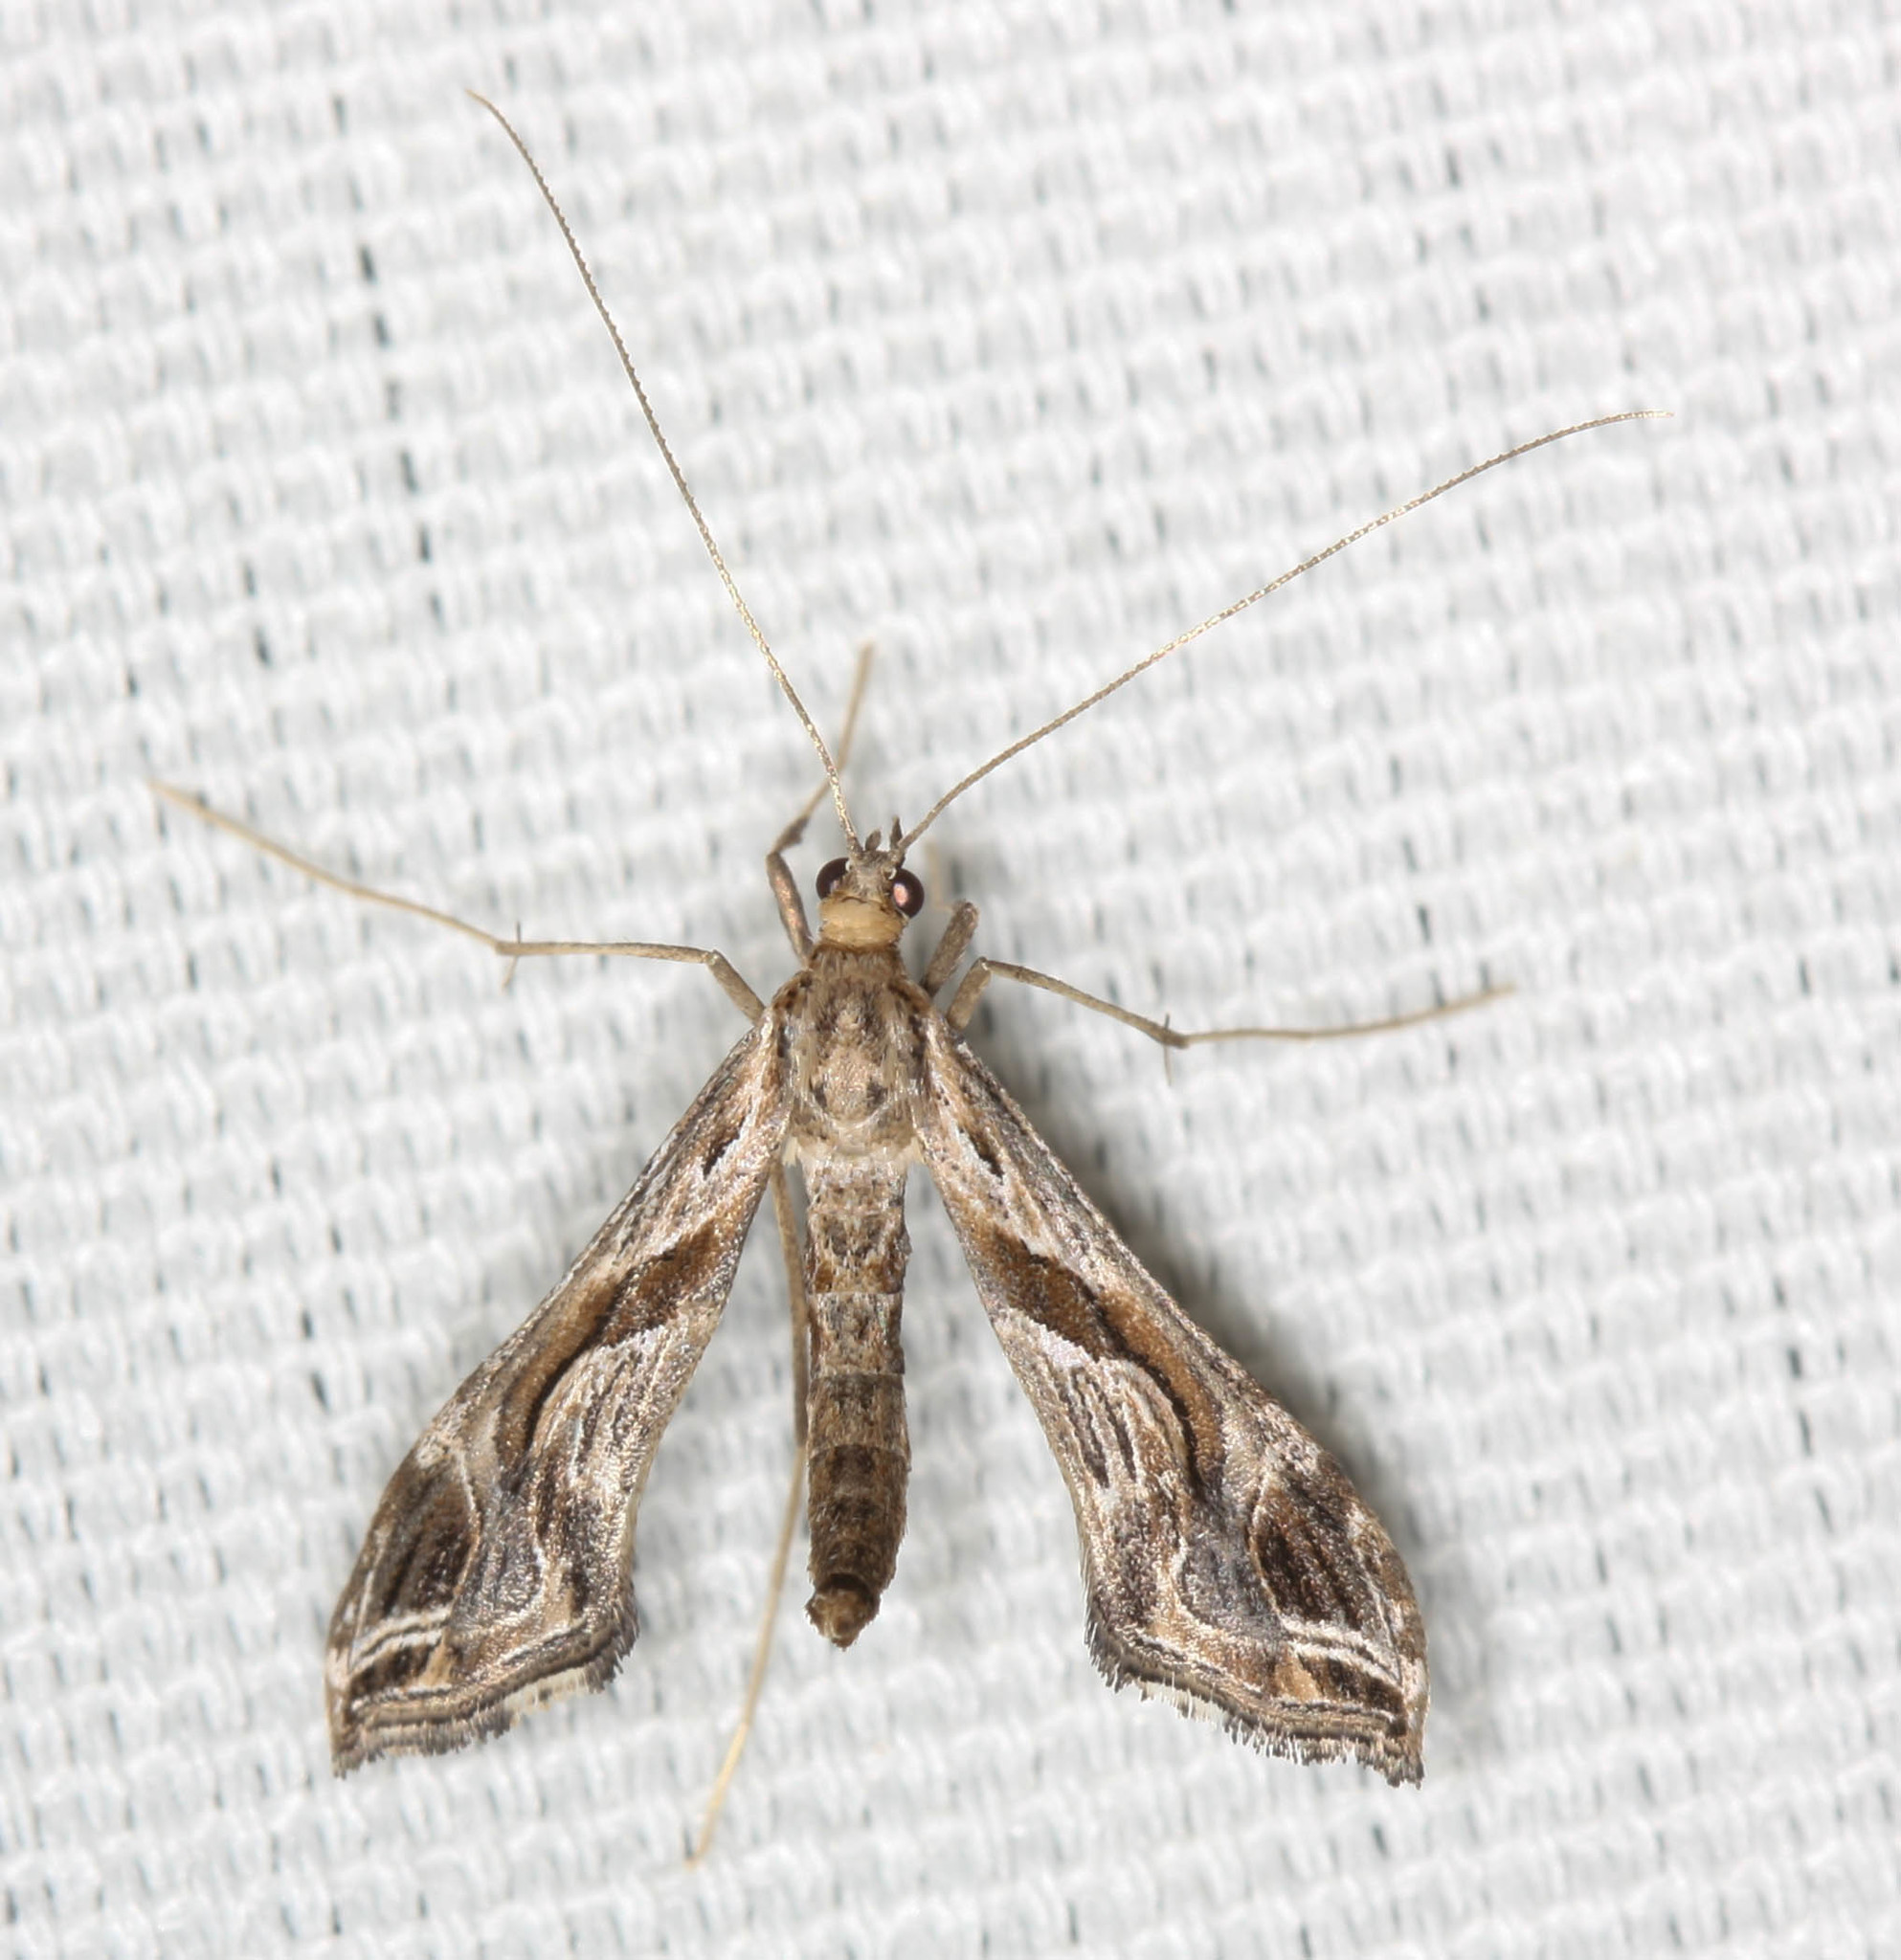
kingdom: Animalia
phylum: Arthropoda
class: Insecta
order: Lepidoptera
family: Crambidae
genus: Lineodes
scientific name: Lineodes integra
